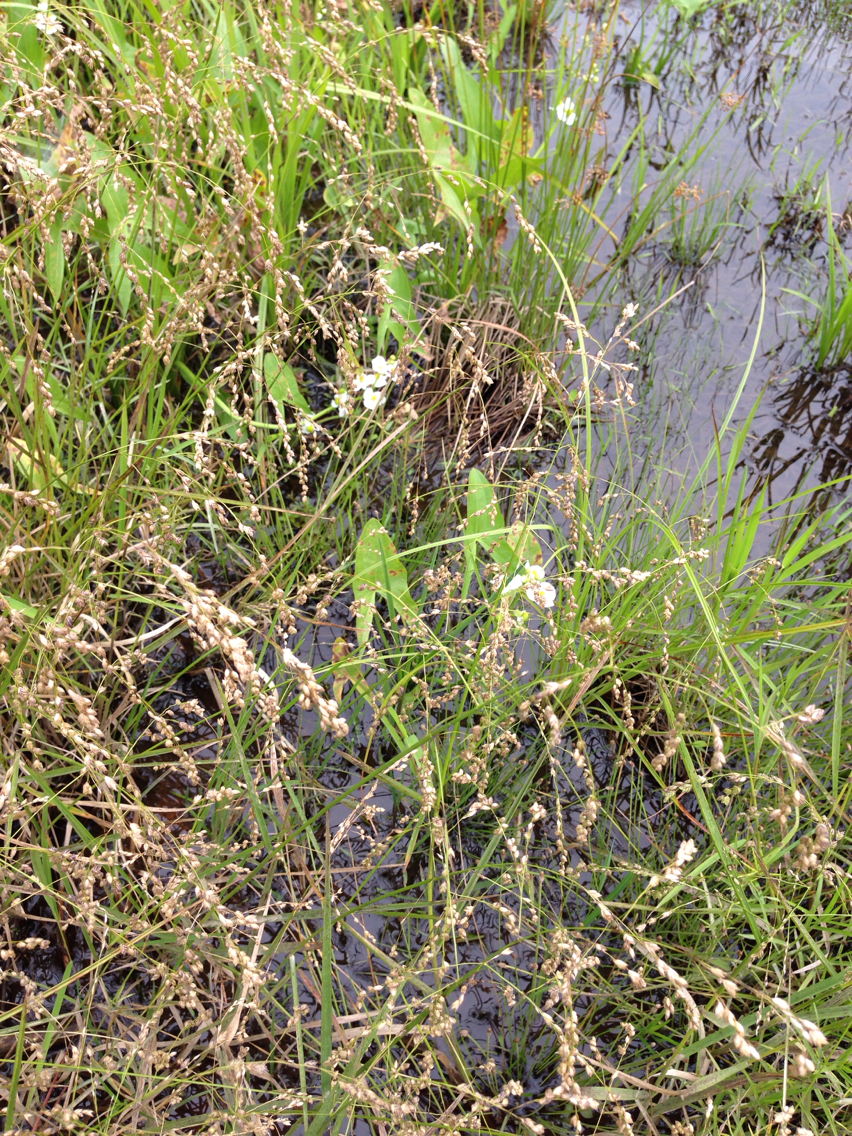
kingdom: Plantae
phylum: Tracheophyta
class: Liliopsida
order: Alismatales
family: Alismataceae
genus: Sagittaria
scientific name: Sagittaria latifolia
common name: Duck-potato
